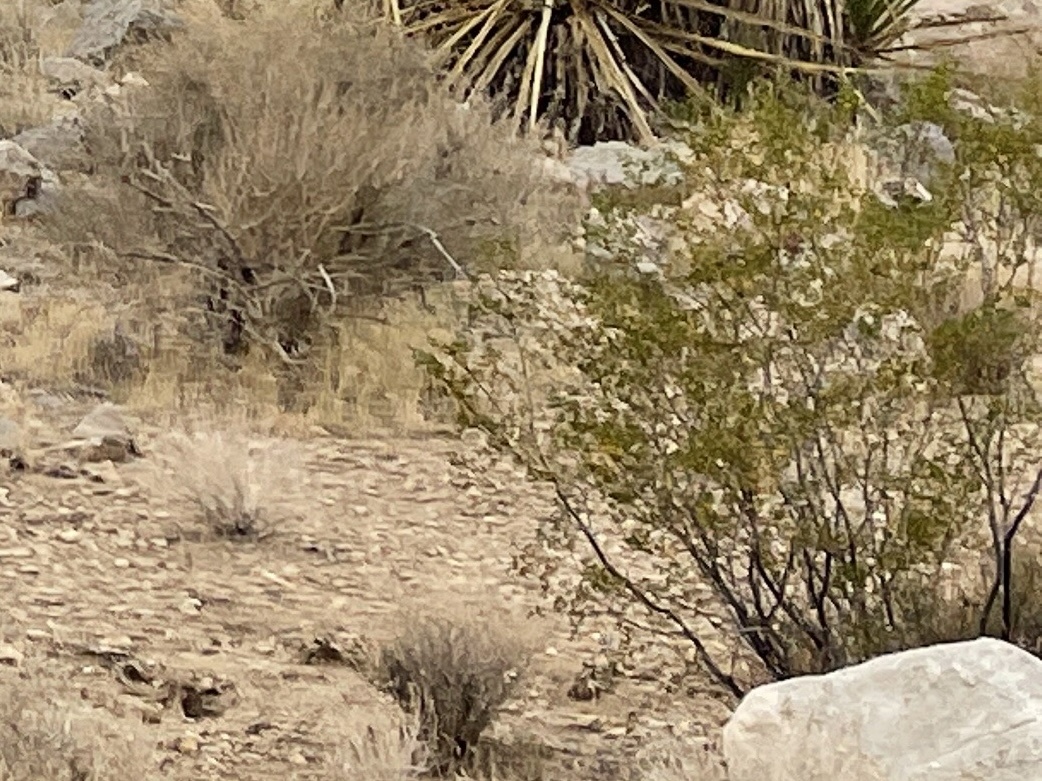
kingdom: Plantae
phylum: Tracheophyta
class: Magnoliopsida
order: Zygophyllales
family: Zygophyllaceae
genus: Larrea
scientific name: Larrea tridentata
